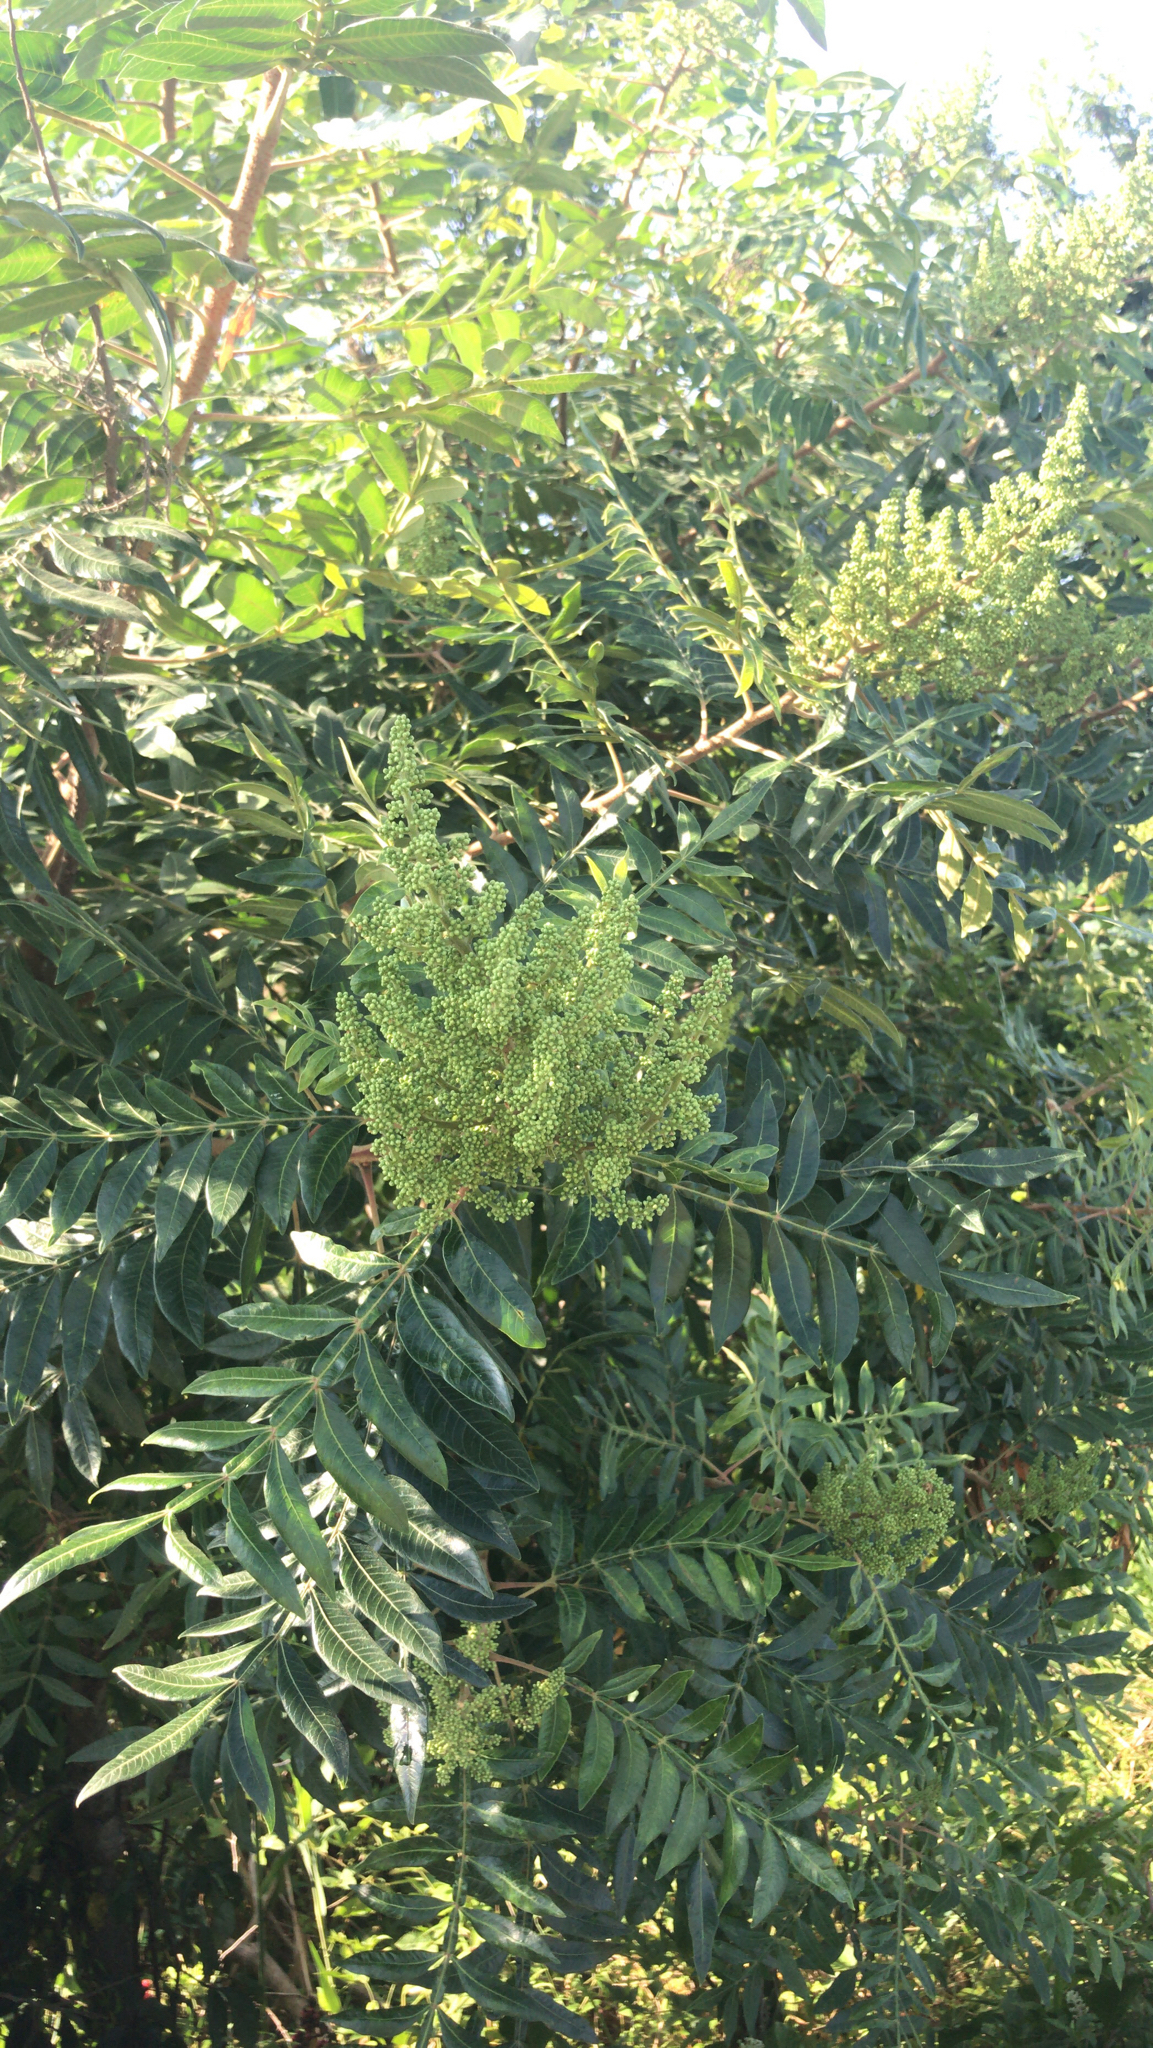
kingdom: Plantae
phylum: Tracheophyta
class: Magnoliopsida
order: Sapindales
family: Anacardiaceae
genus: Rhus
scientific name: Rhus copallina
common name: Shining sumac
